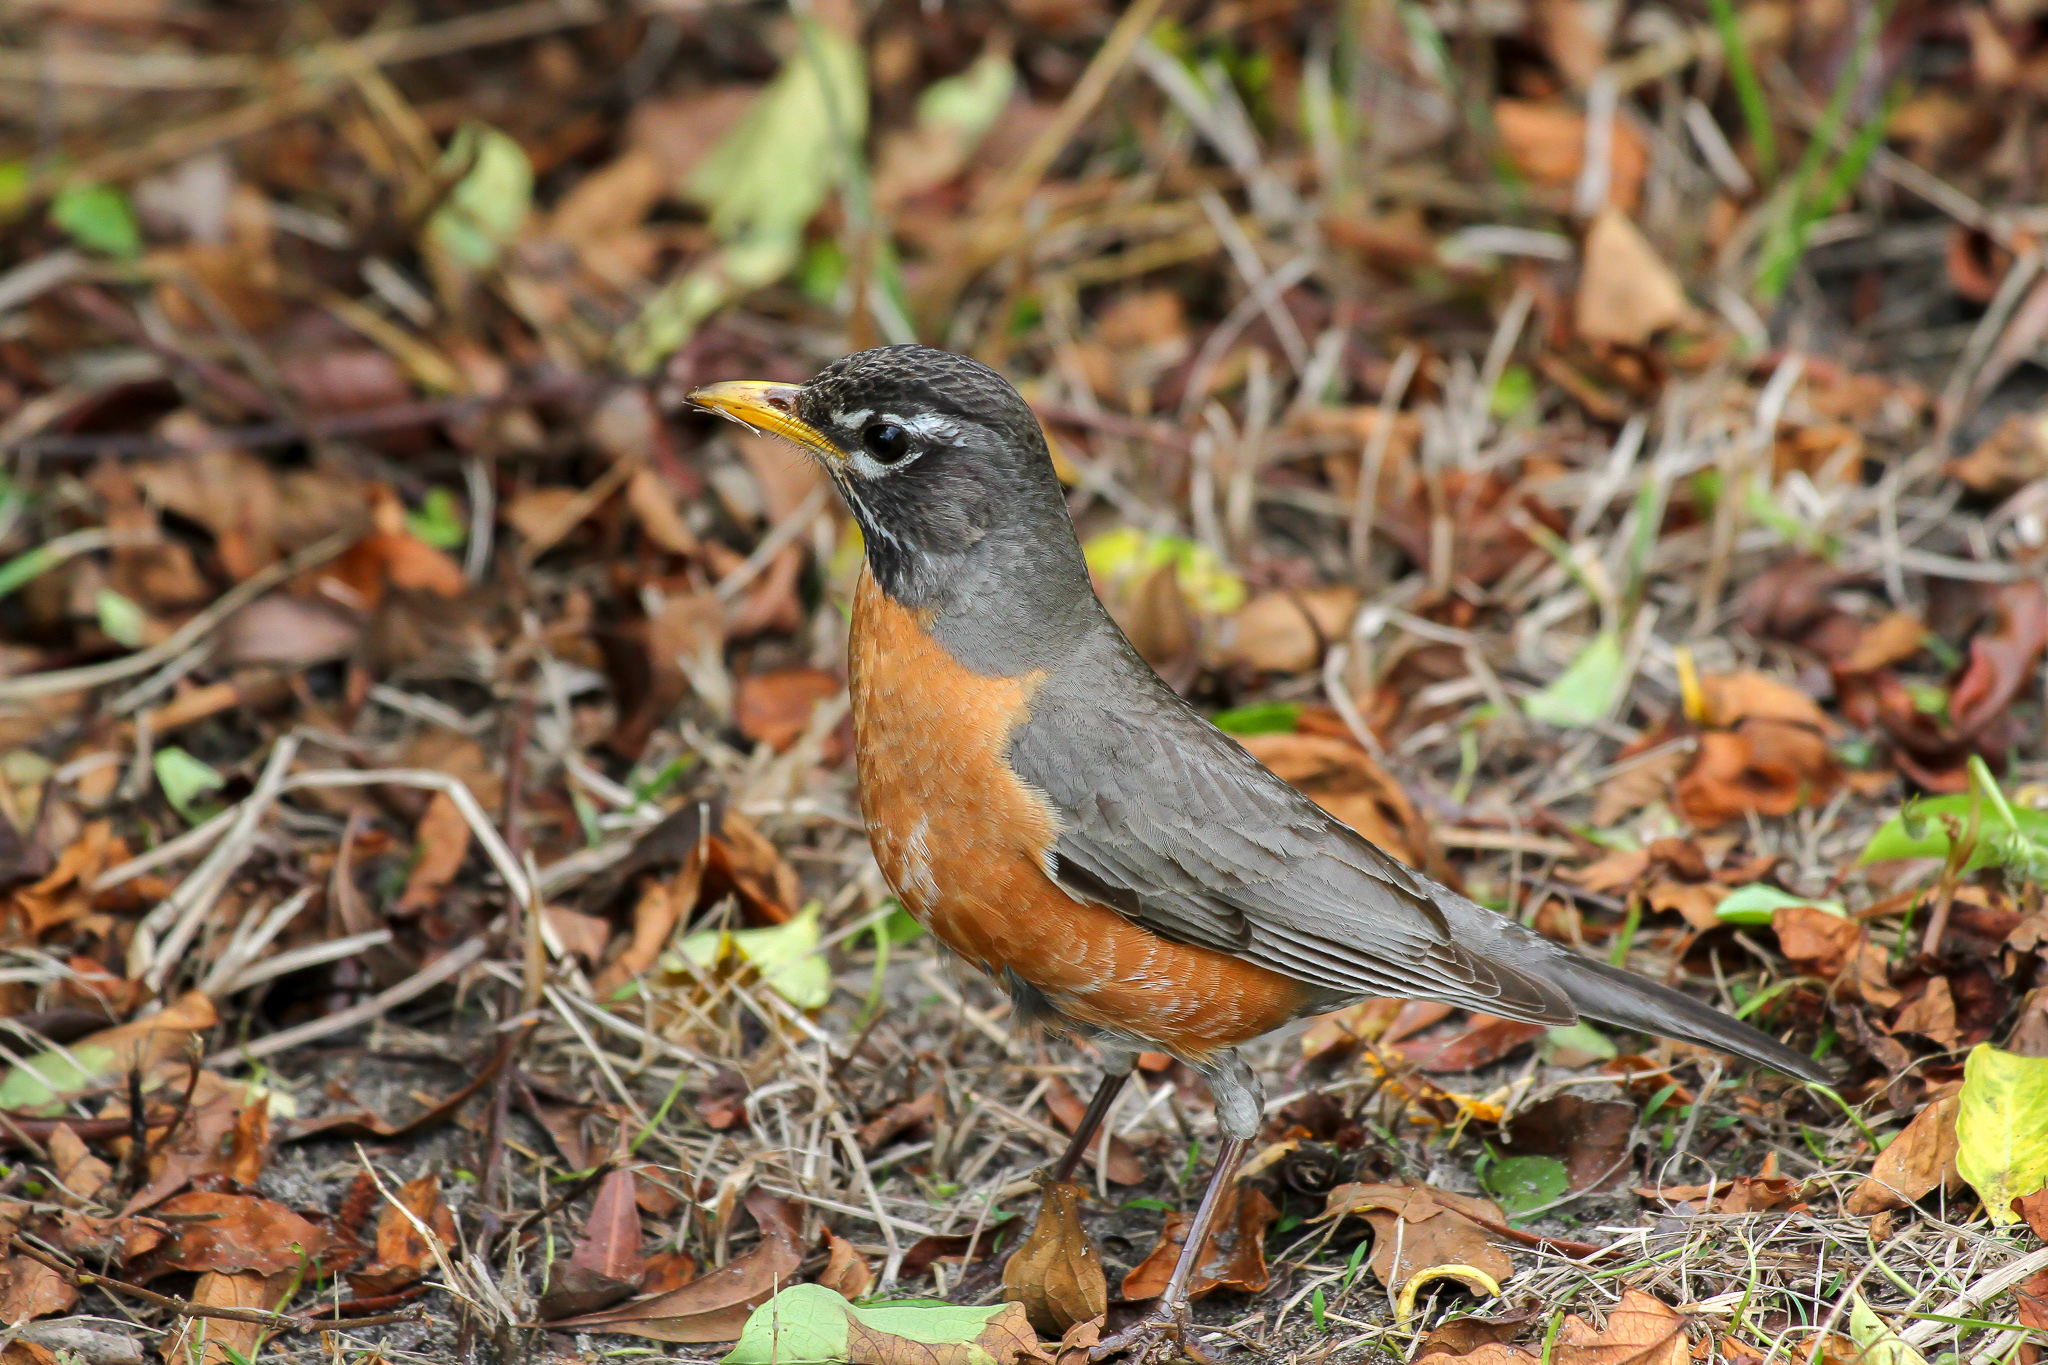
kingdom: Animalia
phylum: Chordata
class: Aves
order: Passeriformes
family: Turdidae
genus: Turdus
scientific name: Turdus migratorius
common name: American robin
